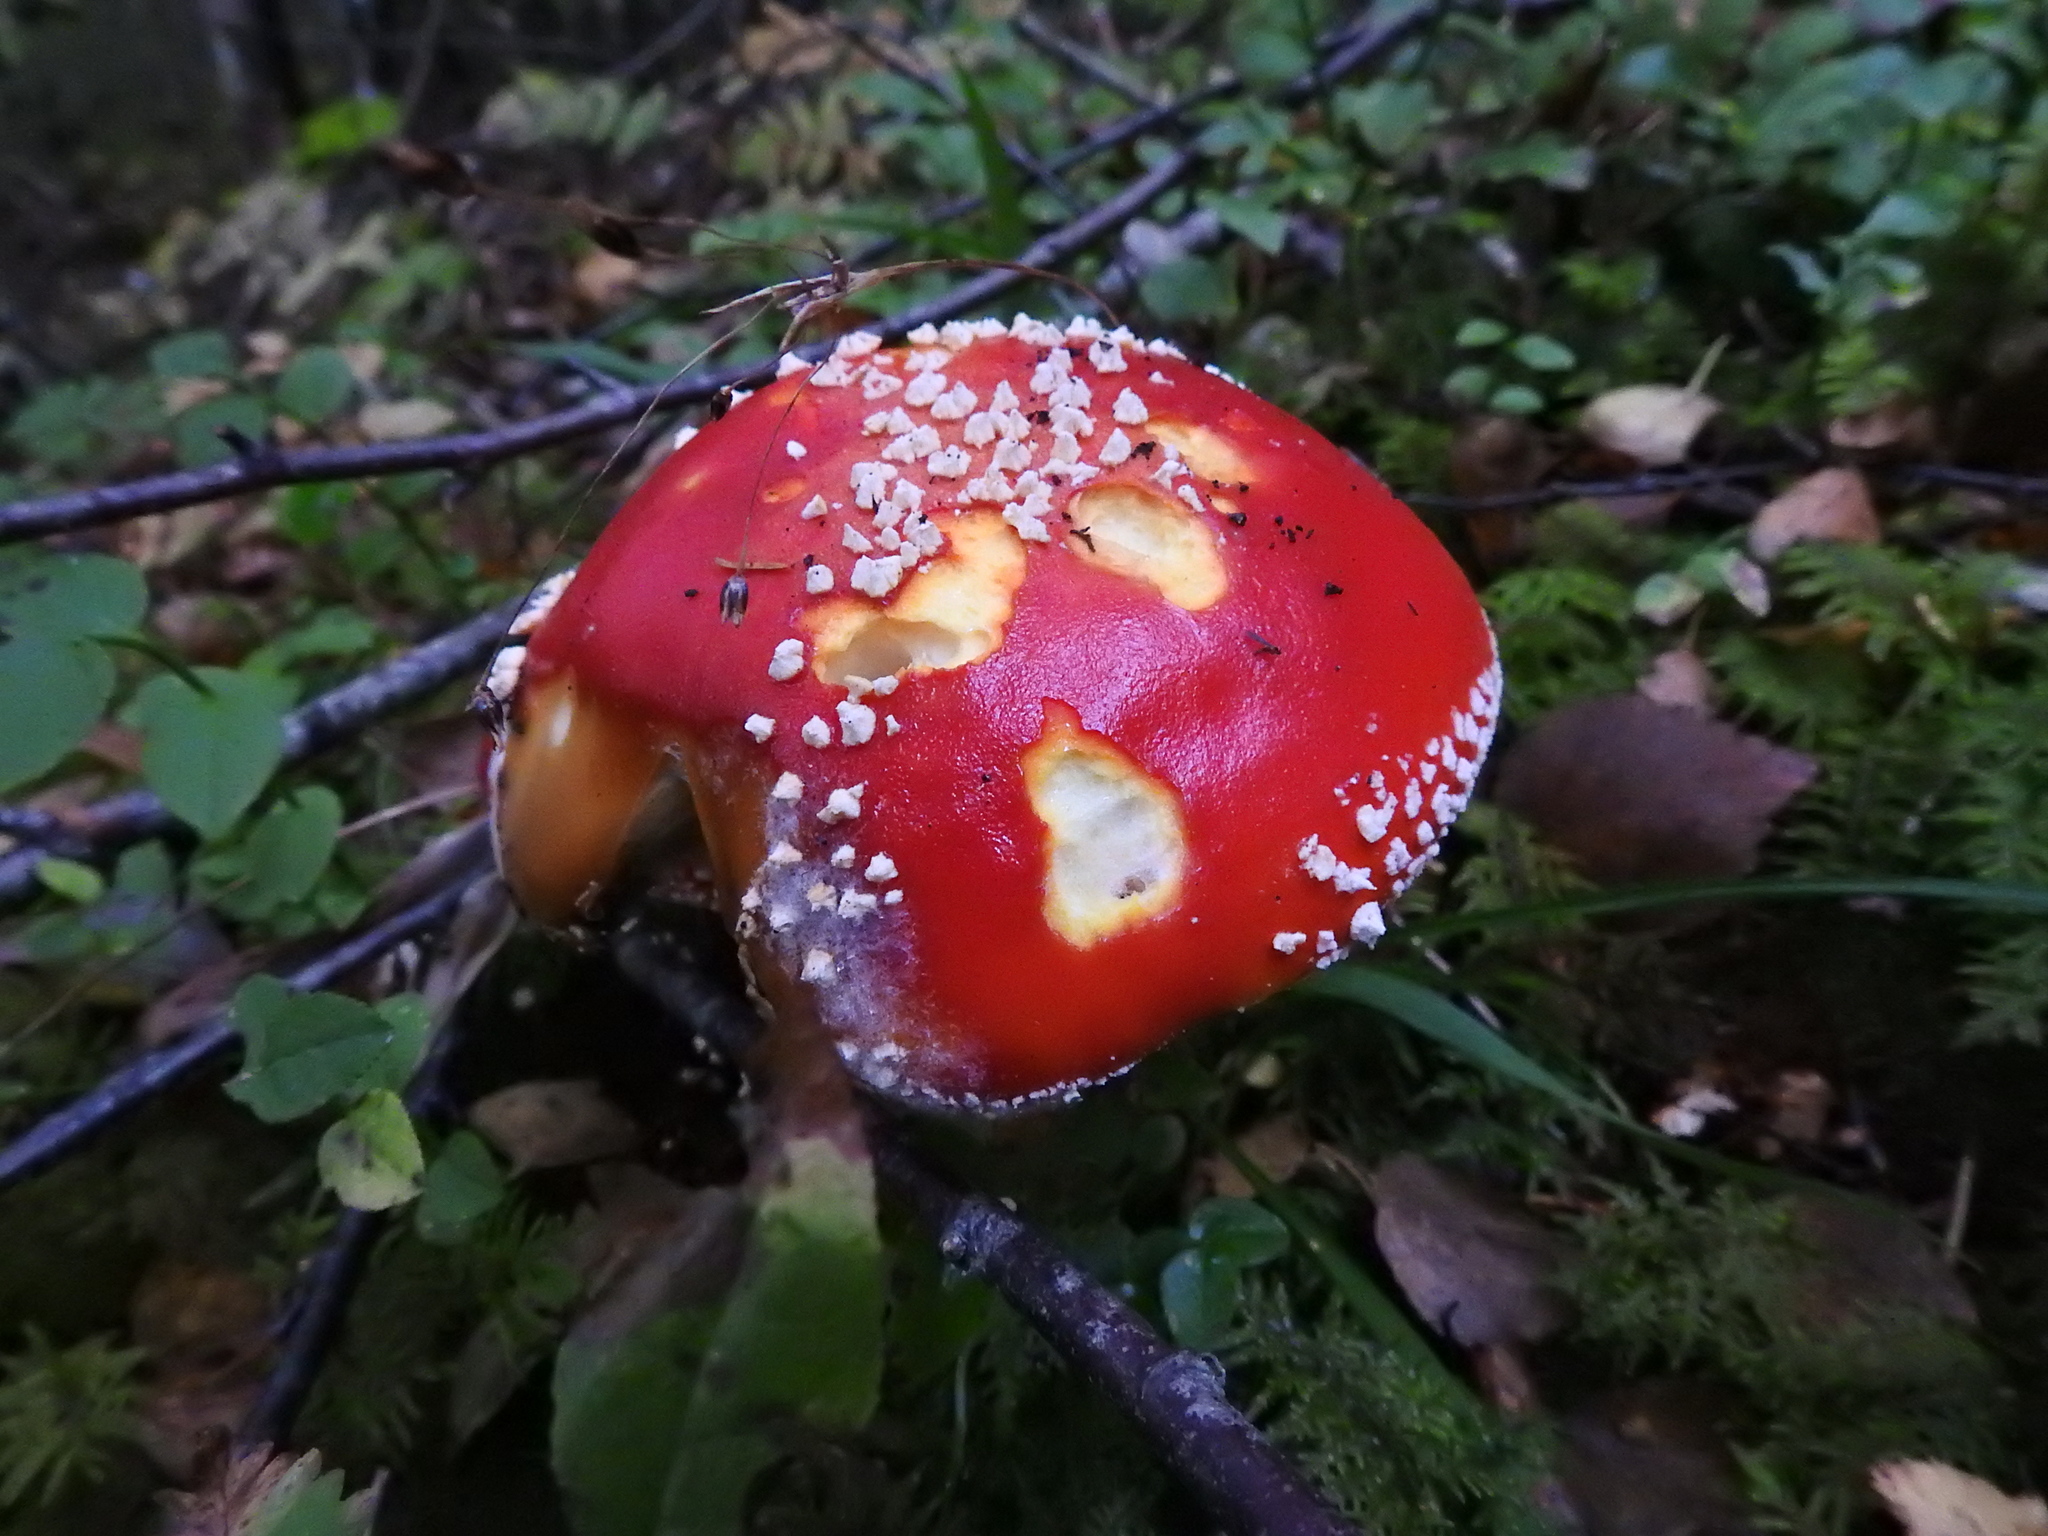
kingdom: Fungi
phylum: Basidiomycota
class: Agaricomycetes
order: Agaricales
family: Amanitaceae
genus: Amanita
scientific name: Amanita muscaria
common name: Fly agaric
